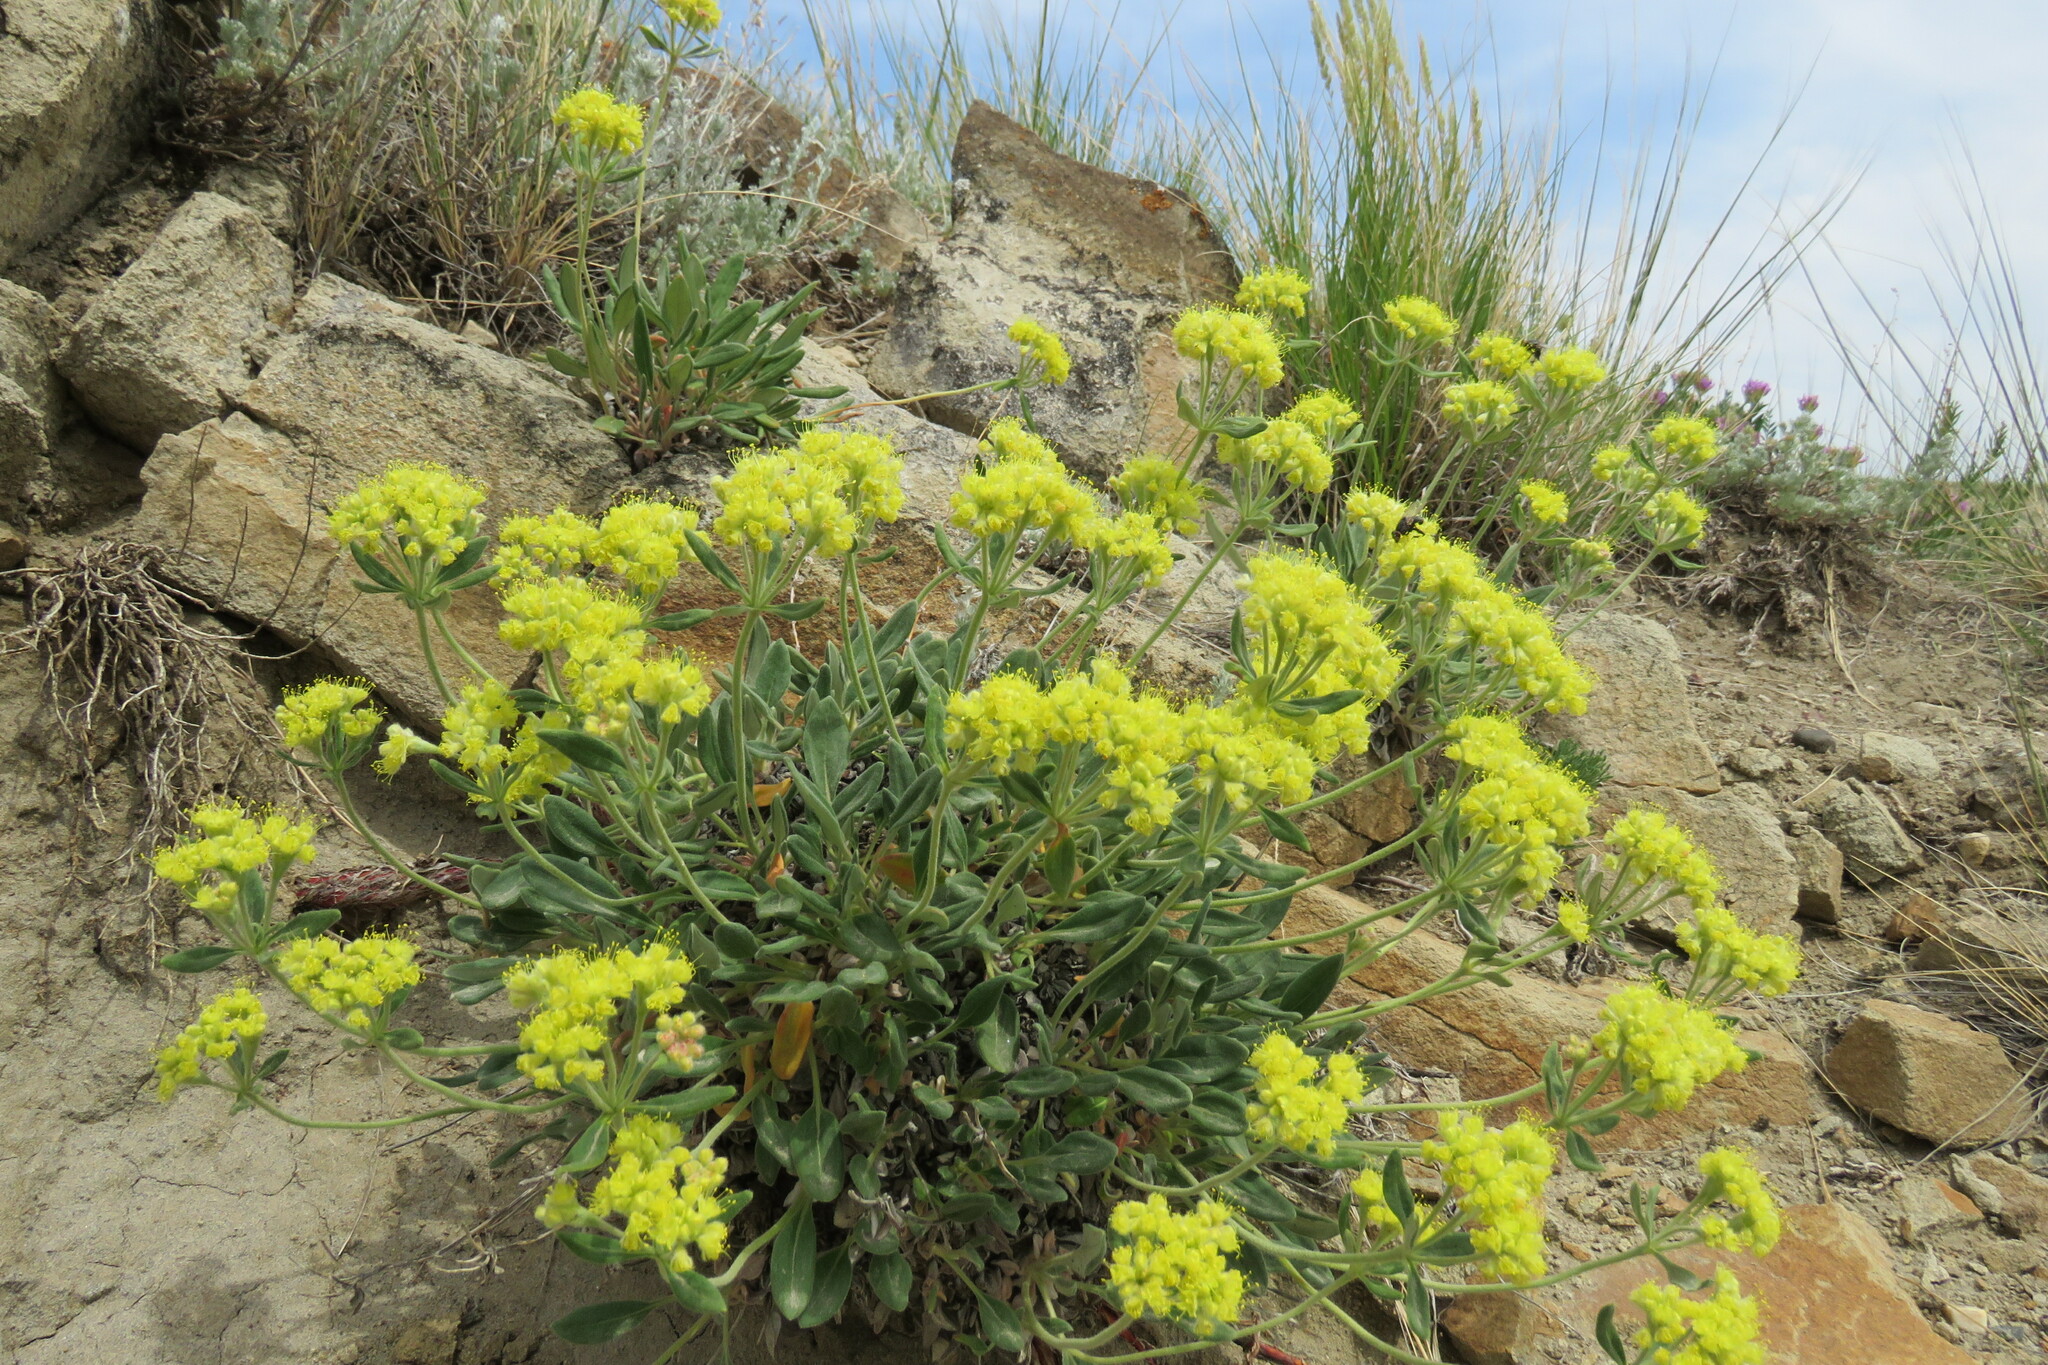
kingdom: Plantae
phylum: Tracheophyta
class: Magnoliopsida
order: Caryophyllales
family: Polygonaceae
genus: Eriogonum
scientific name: Eriogonum flavum
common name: Alpine golden wild buckwheat
